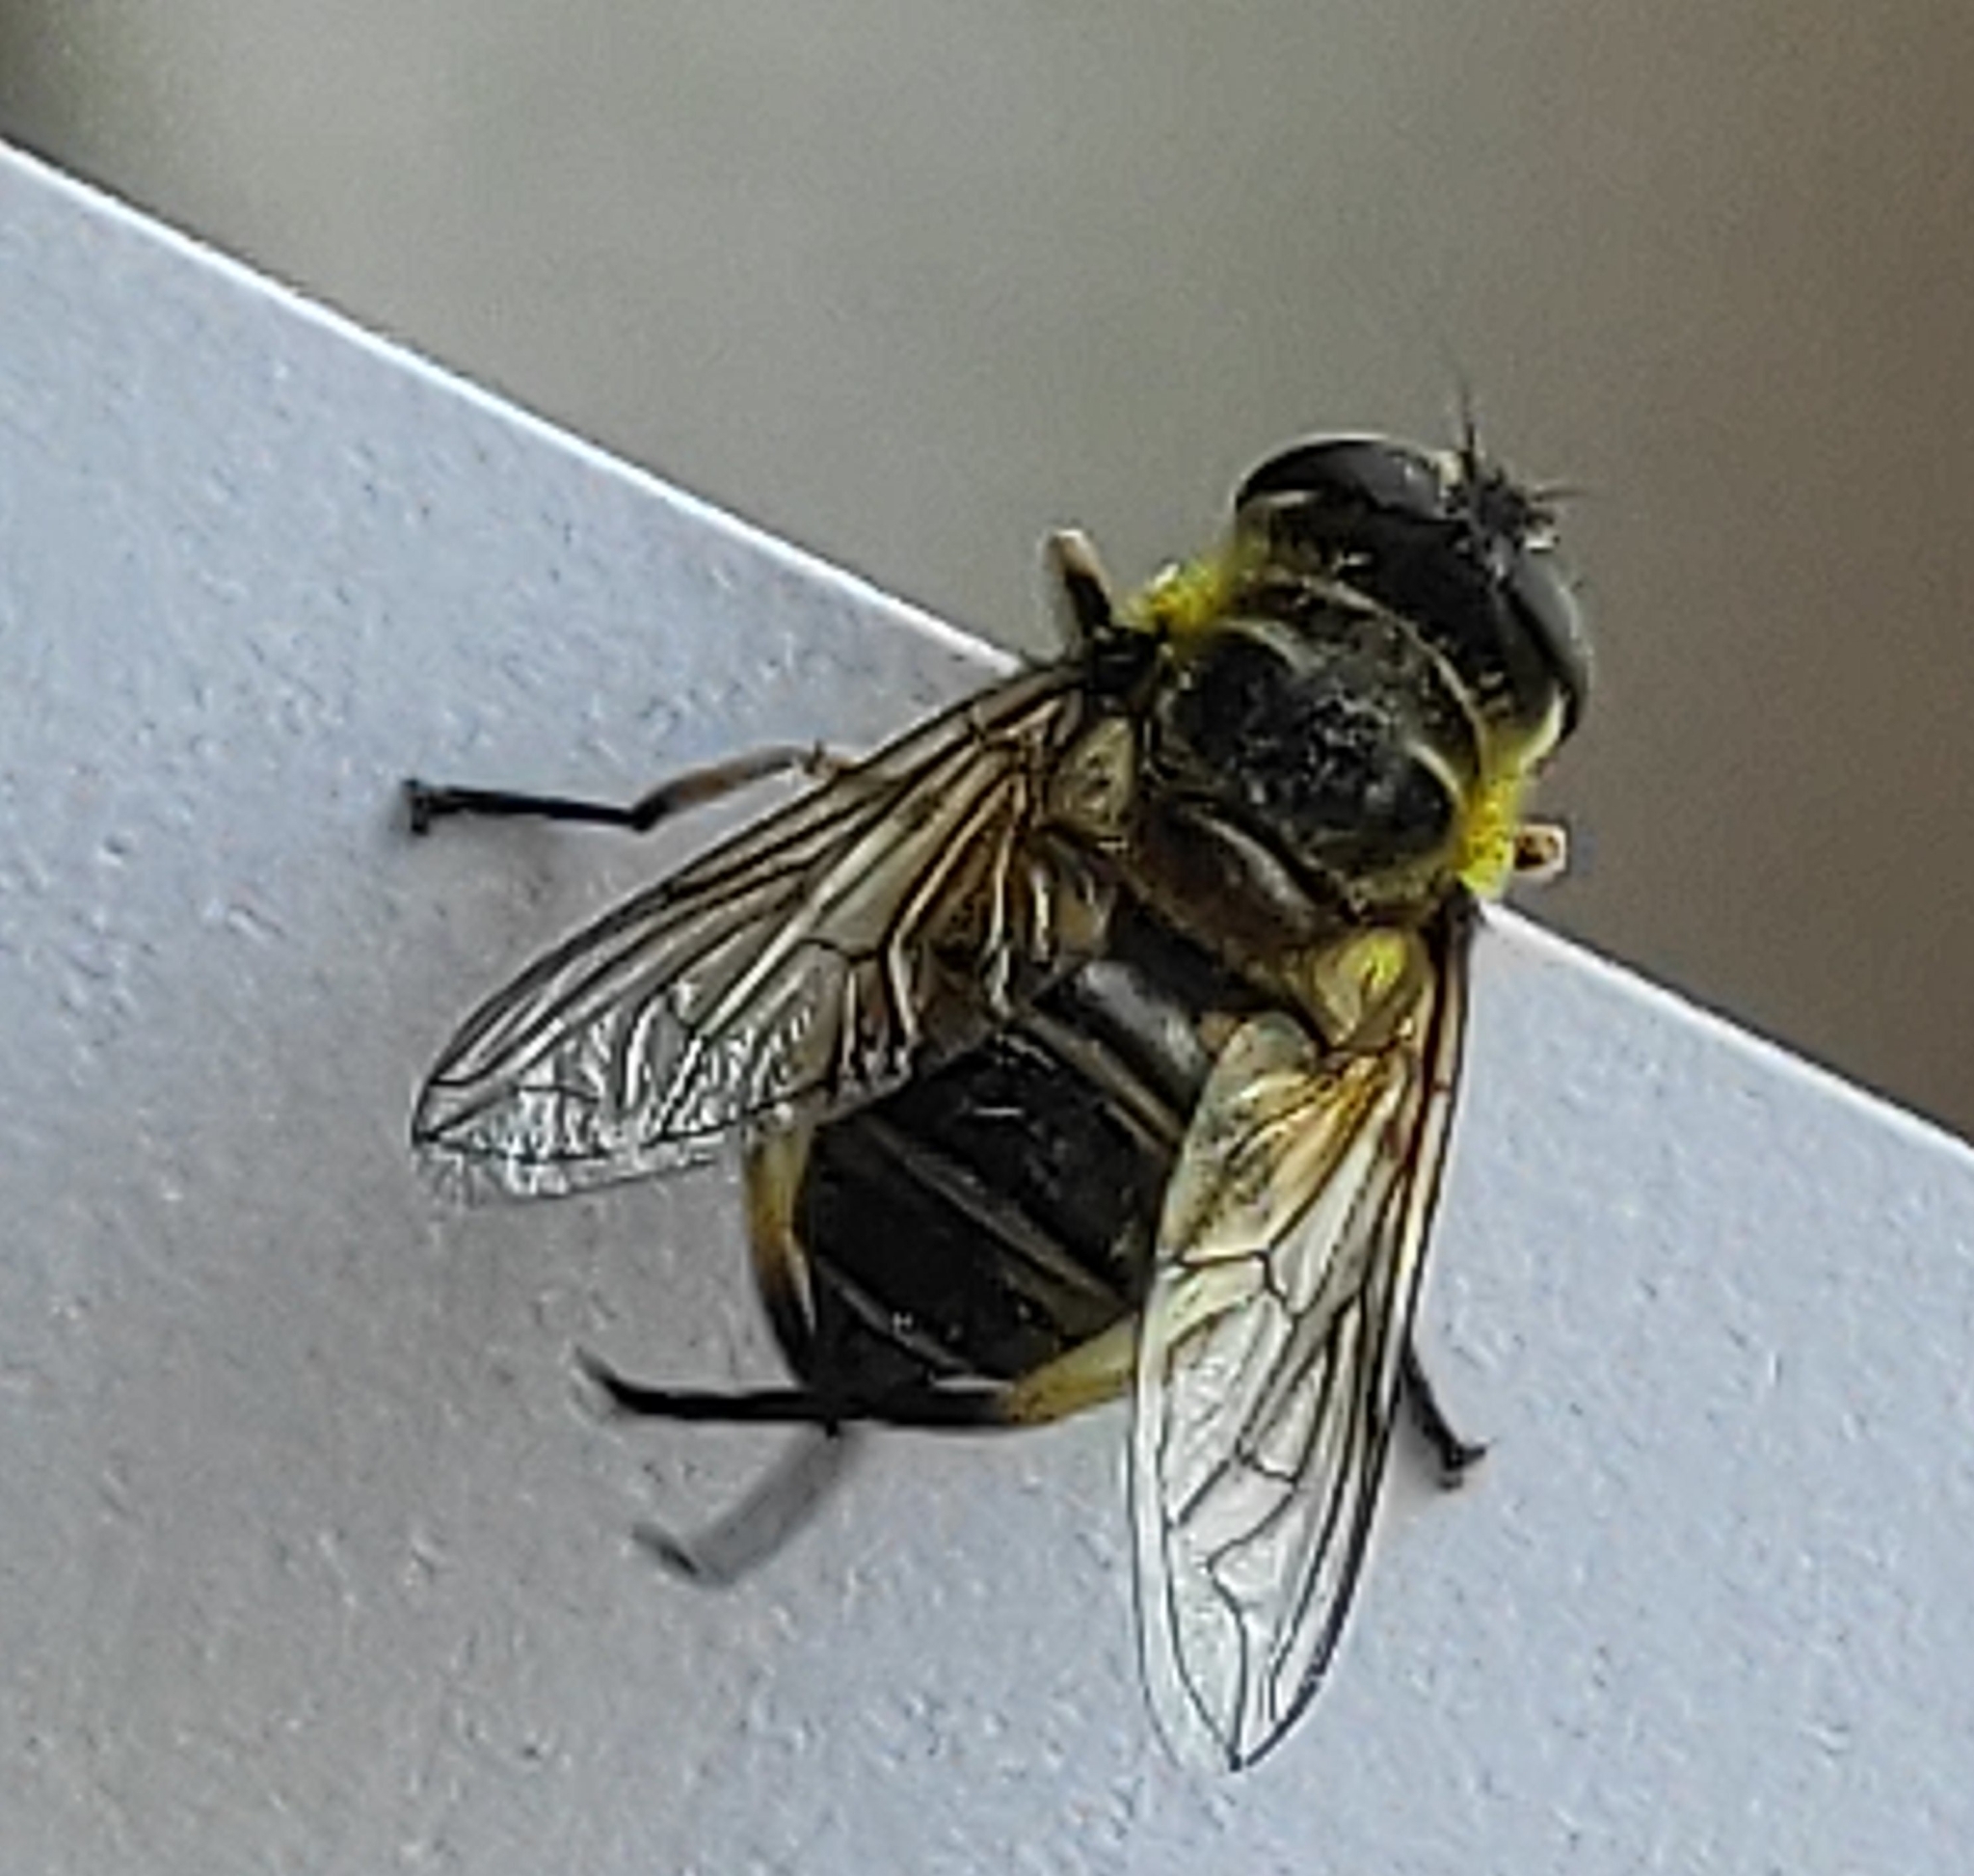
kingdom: Animalia
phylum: Arthropoda
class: Insecta
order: Diptera
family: Syrphidae
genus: Myathropa
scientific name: Myathropa florea
